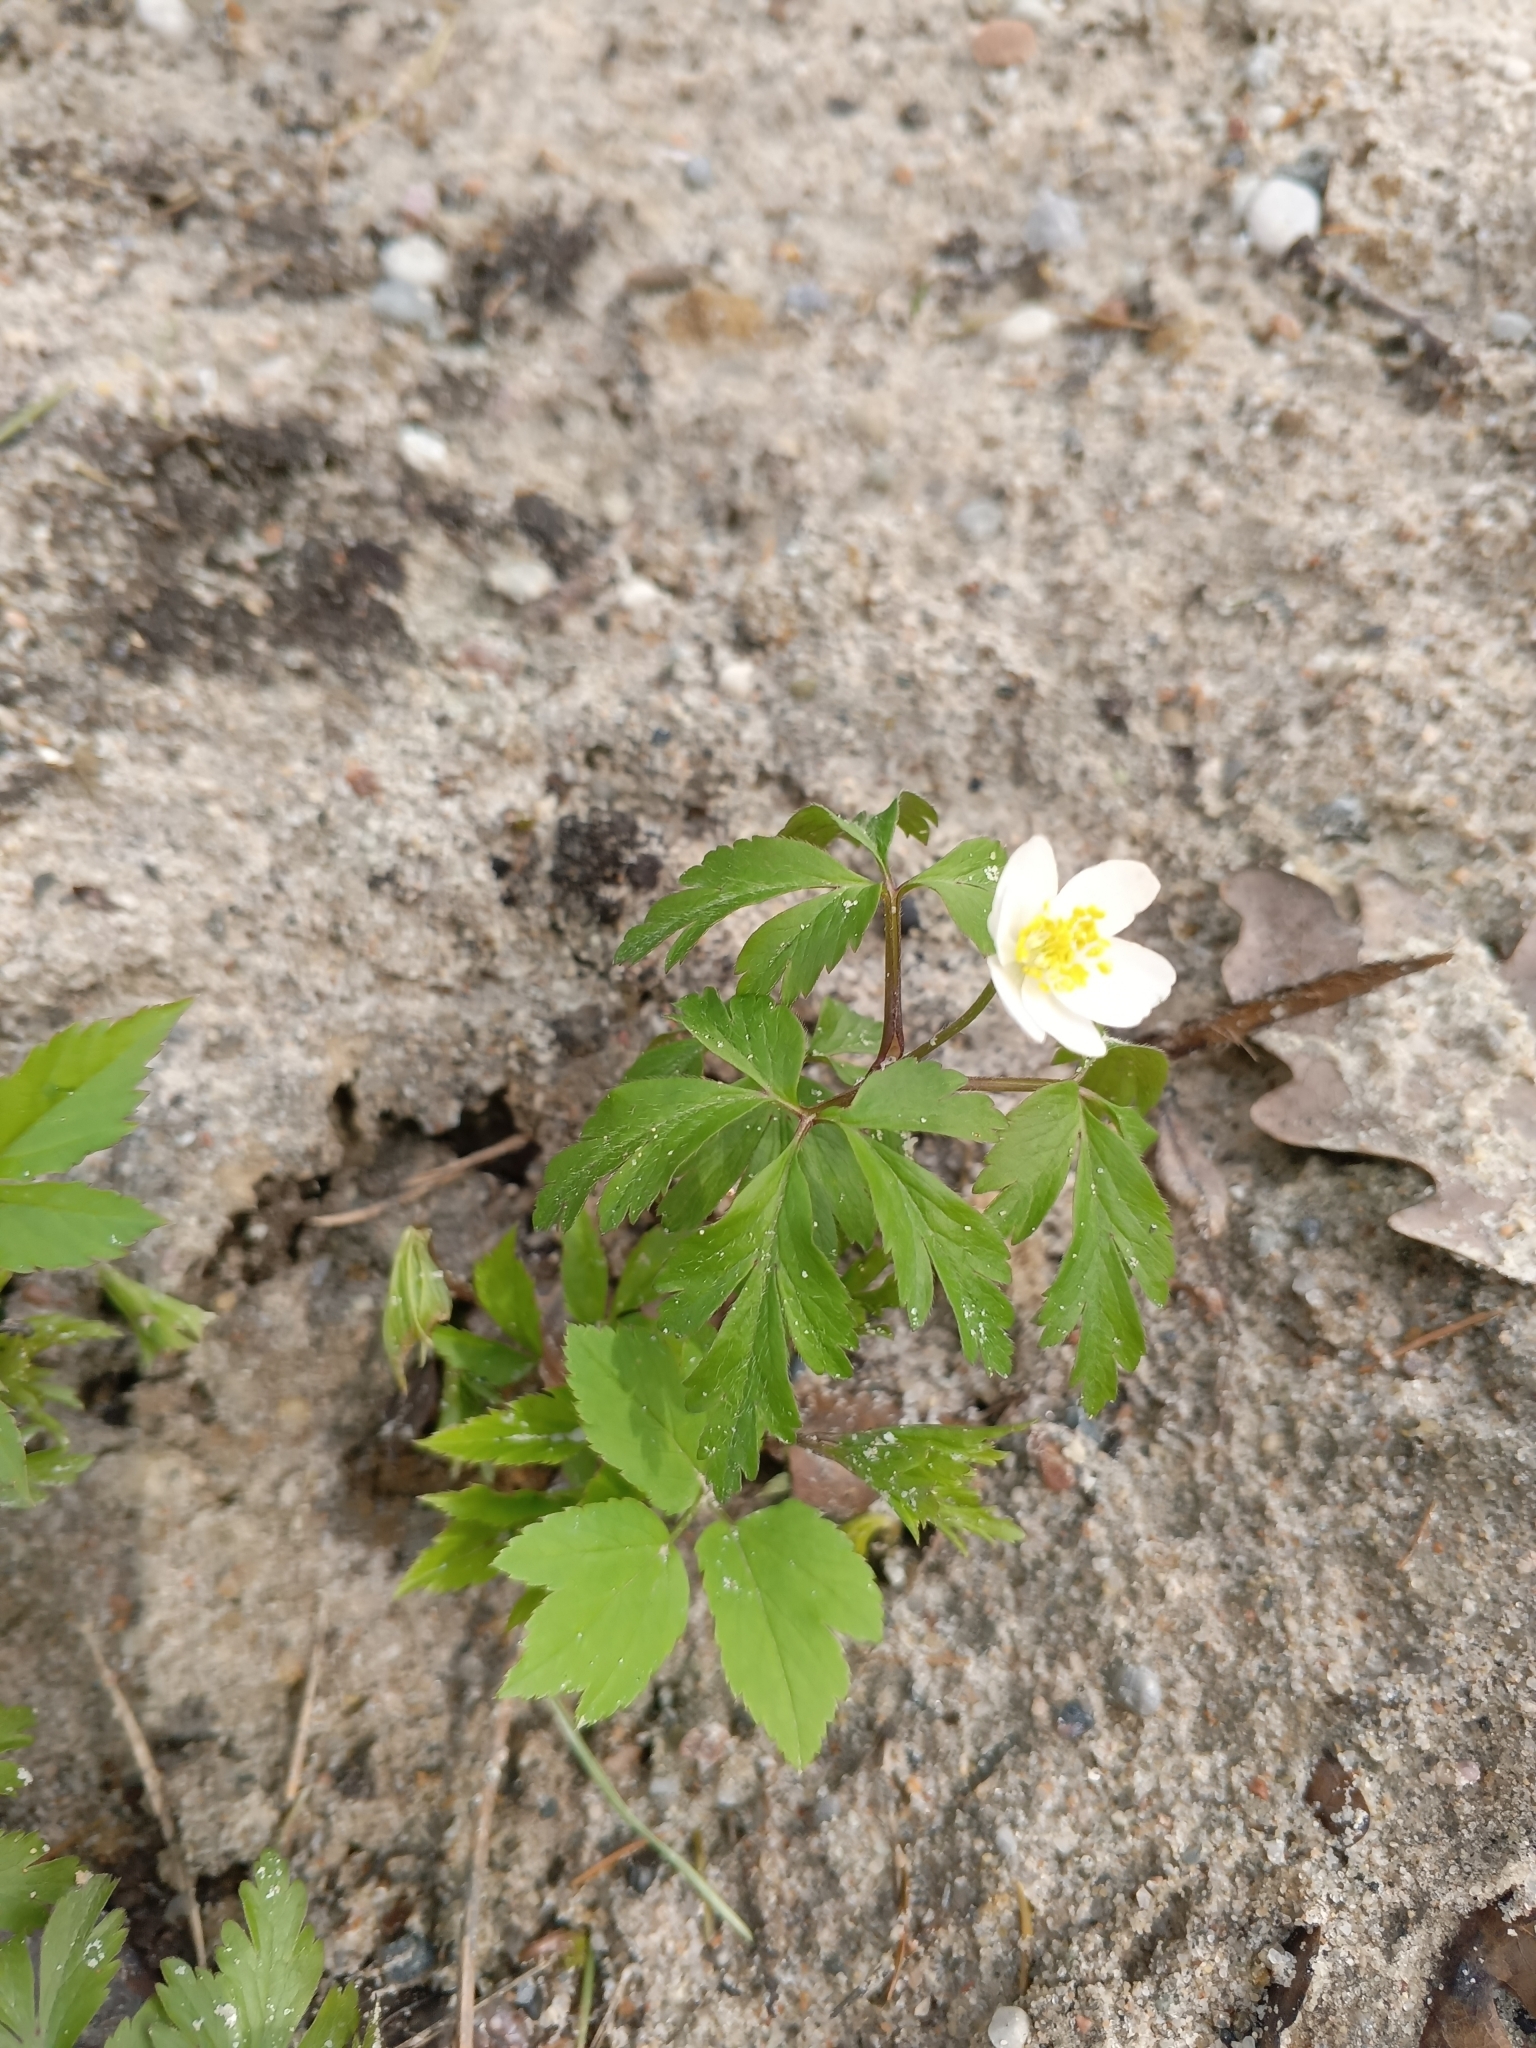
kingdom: Plantae
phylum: Tracheophyta
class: Magnoliopsida
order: Ranunculales
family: Ranunculaceae
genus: Anemone
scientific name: Anemone nemorosa
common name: Wood anemone
